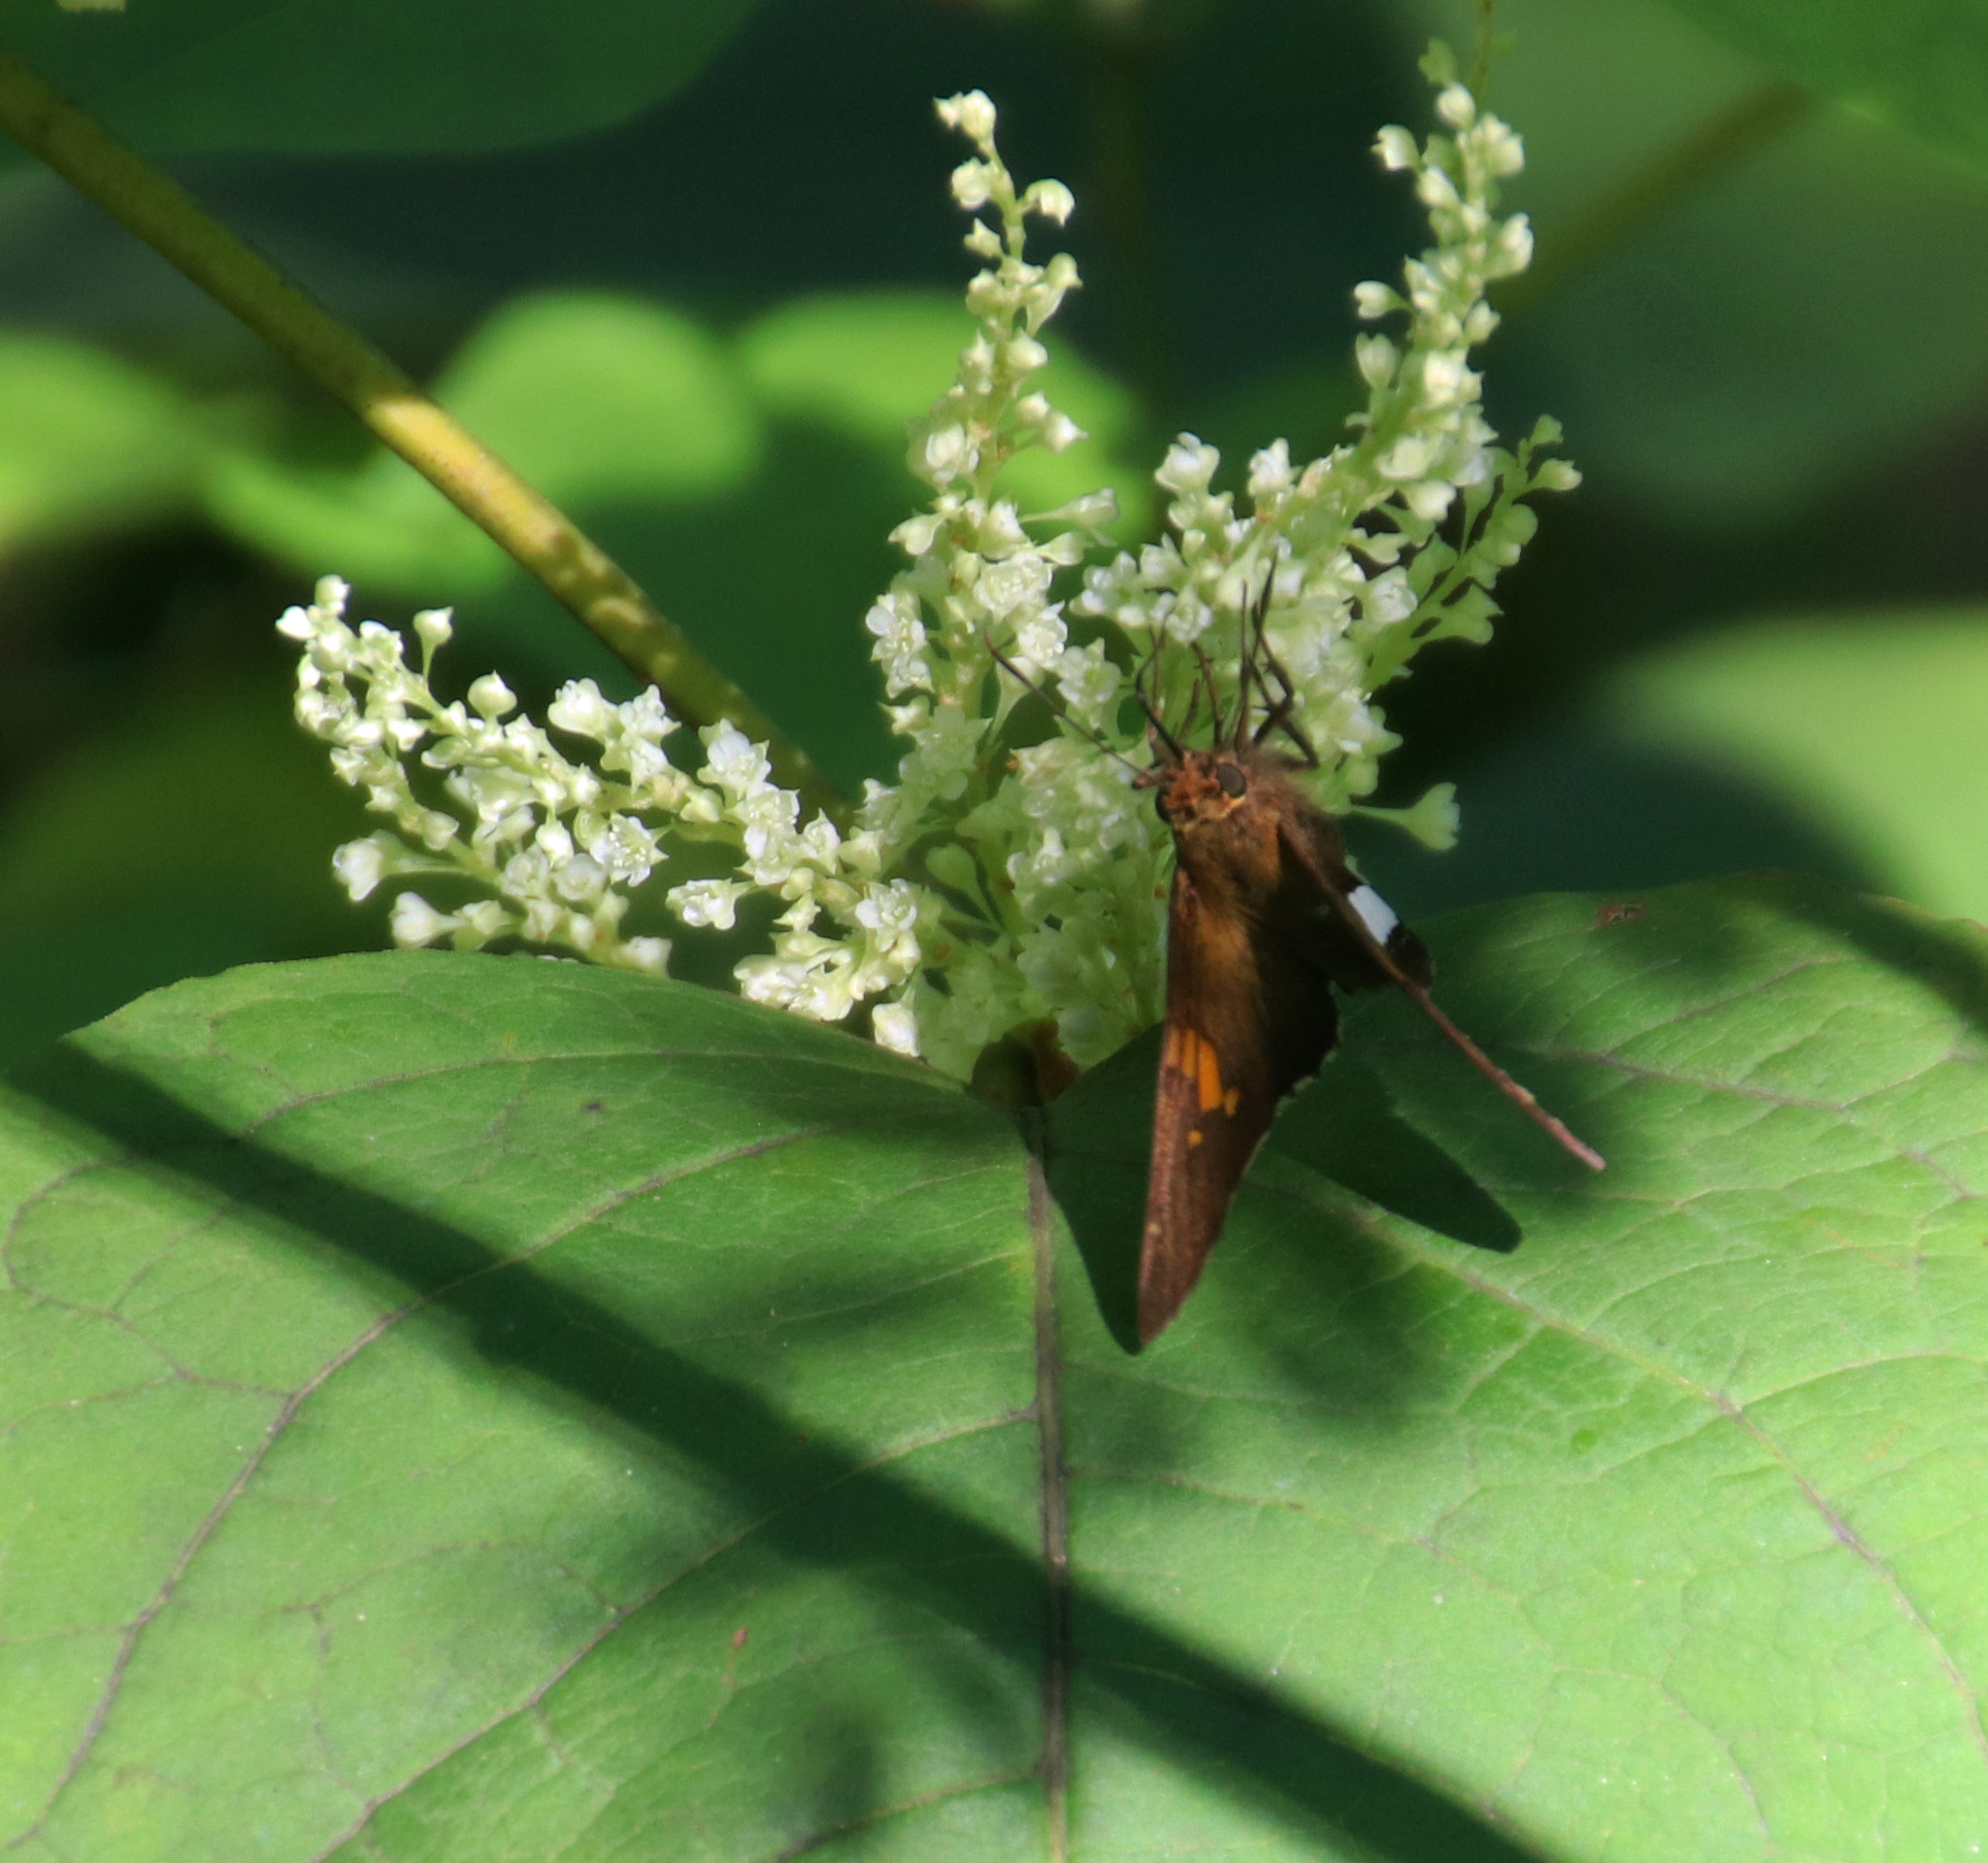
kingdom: Animalia
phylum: Arthropoda
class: Insecta
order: Lepidoptera
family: Hesperiidae
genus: Epargyreus
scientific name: Epargyreus clarus
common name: Silver-spotted skipper
